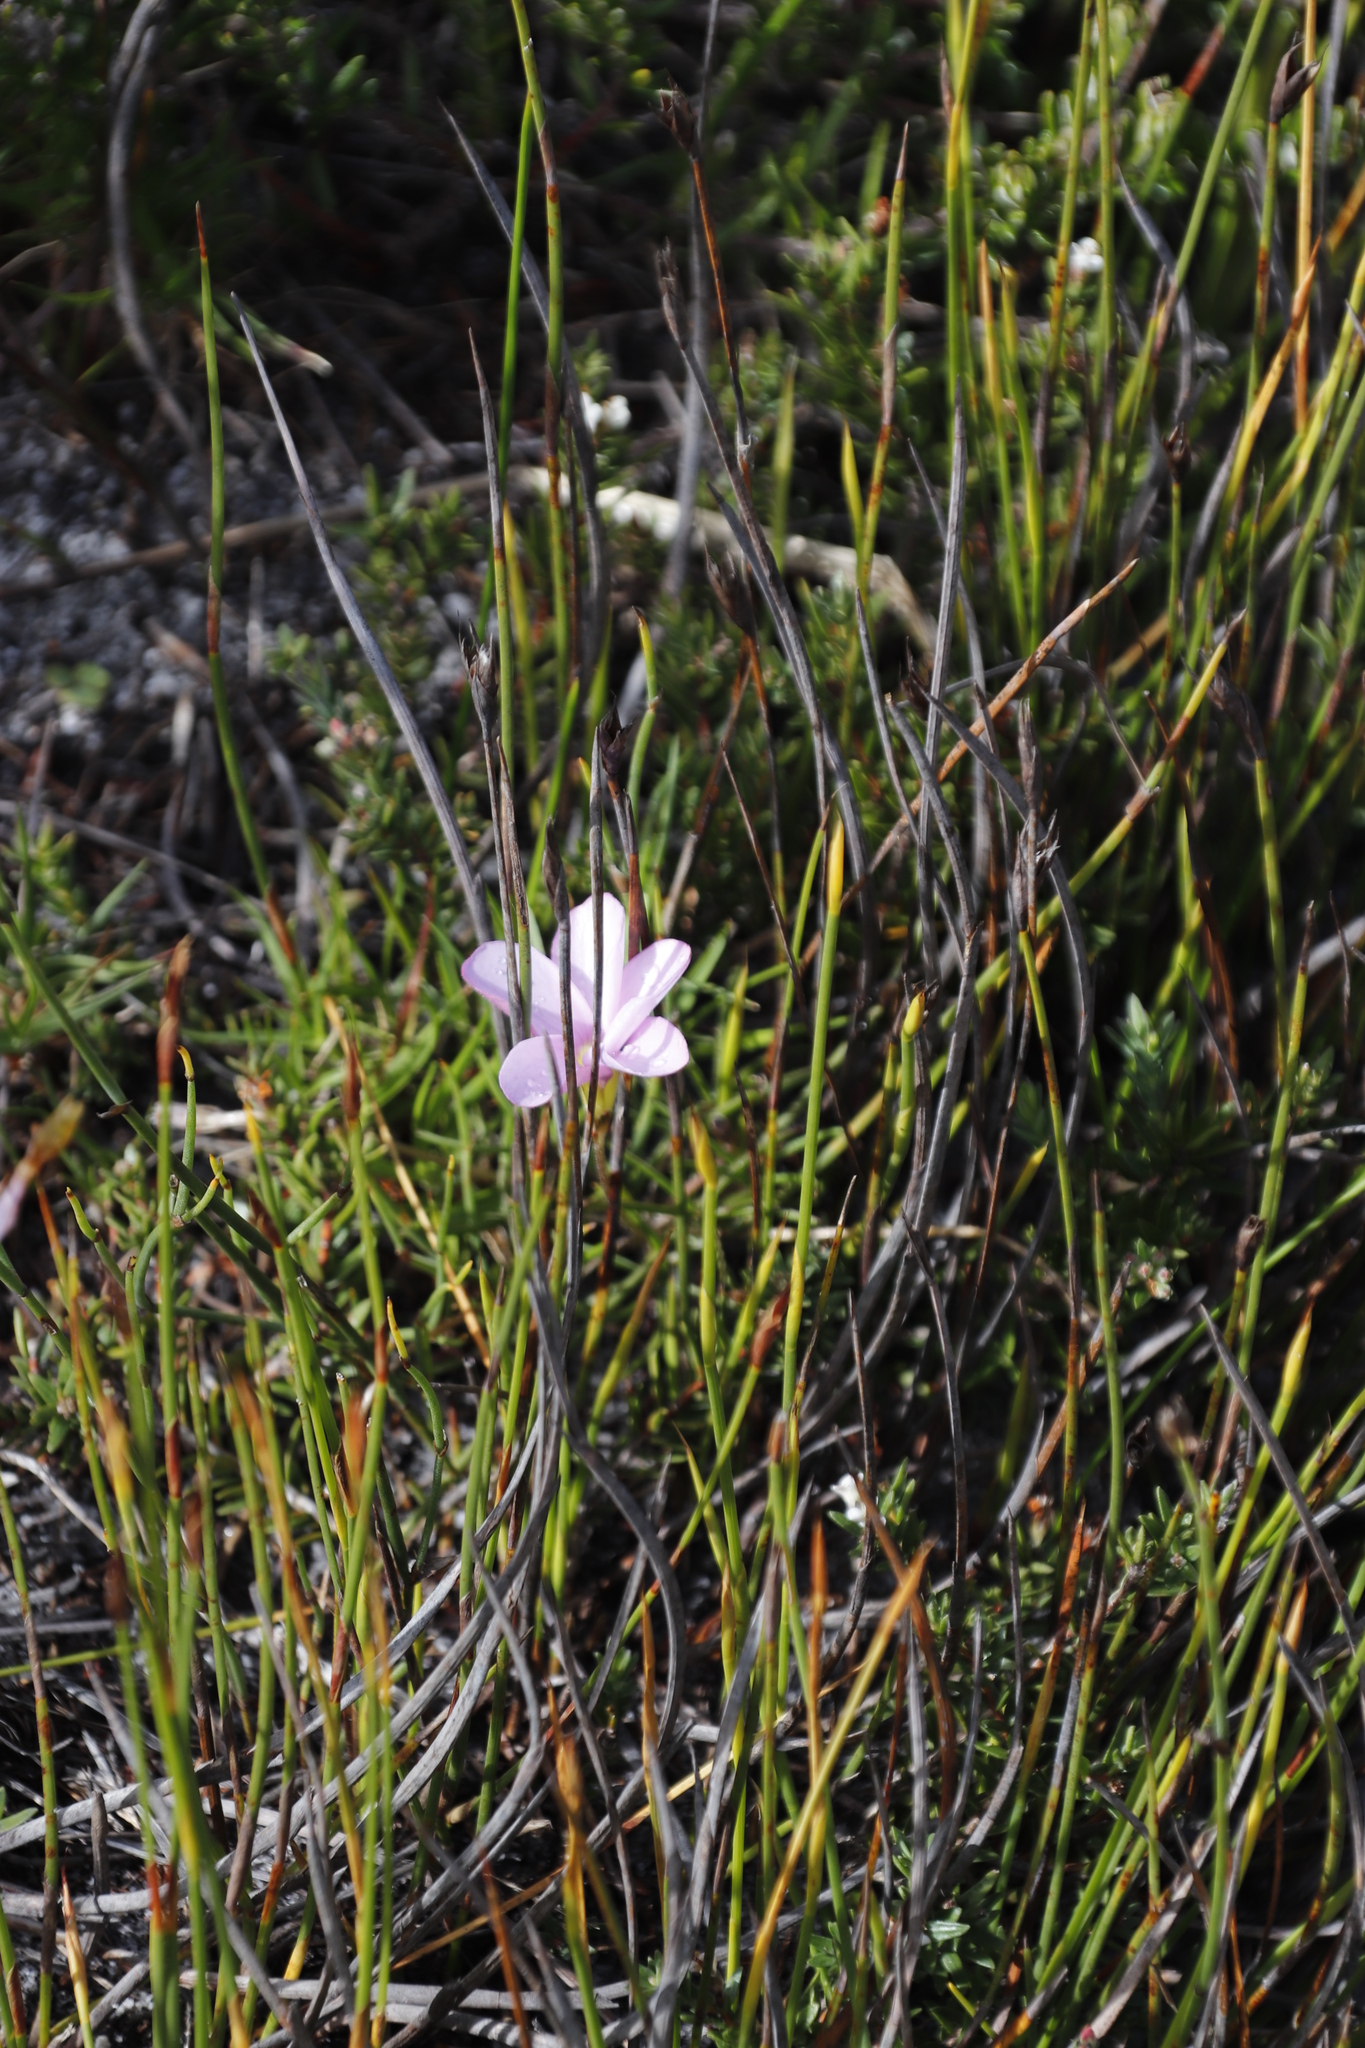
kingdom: Plantae
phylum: Tracheophyta
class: Magnoliopsida
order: Oxalidales
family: Oxalidaceae
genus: Oxalis
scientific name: Oxalis polyphylla
